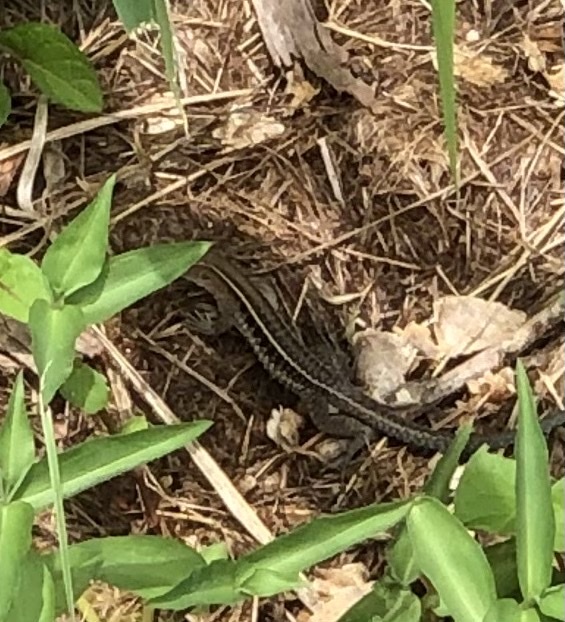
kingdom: Animalia
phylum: Chordata
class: Squamata
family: Teiidae
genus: Pholidoscelis
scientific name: Pholidoscelis exsul
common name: Common puerto rican ameiva
